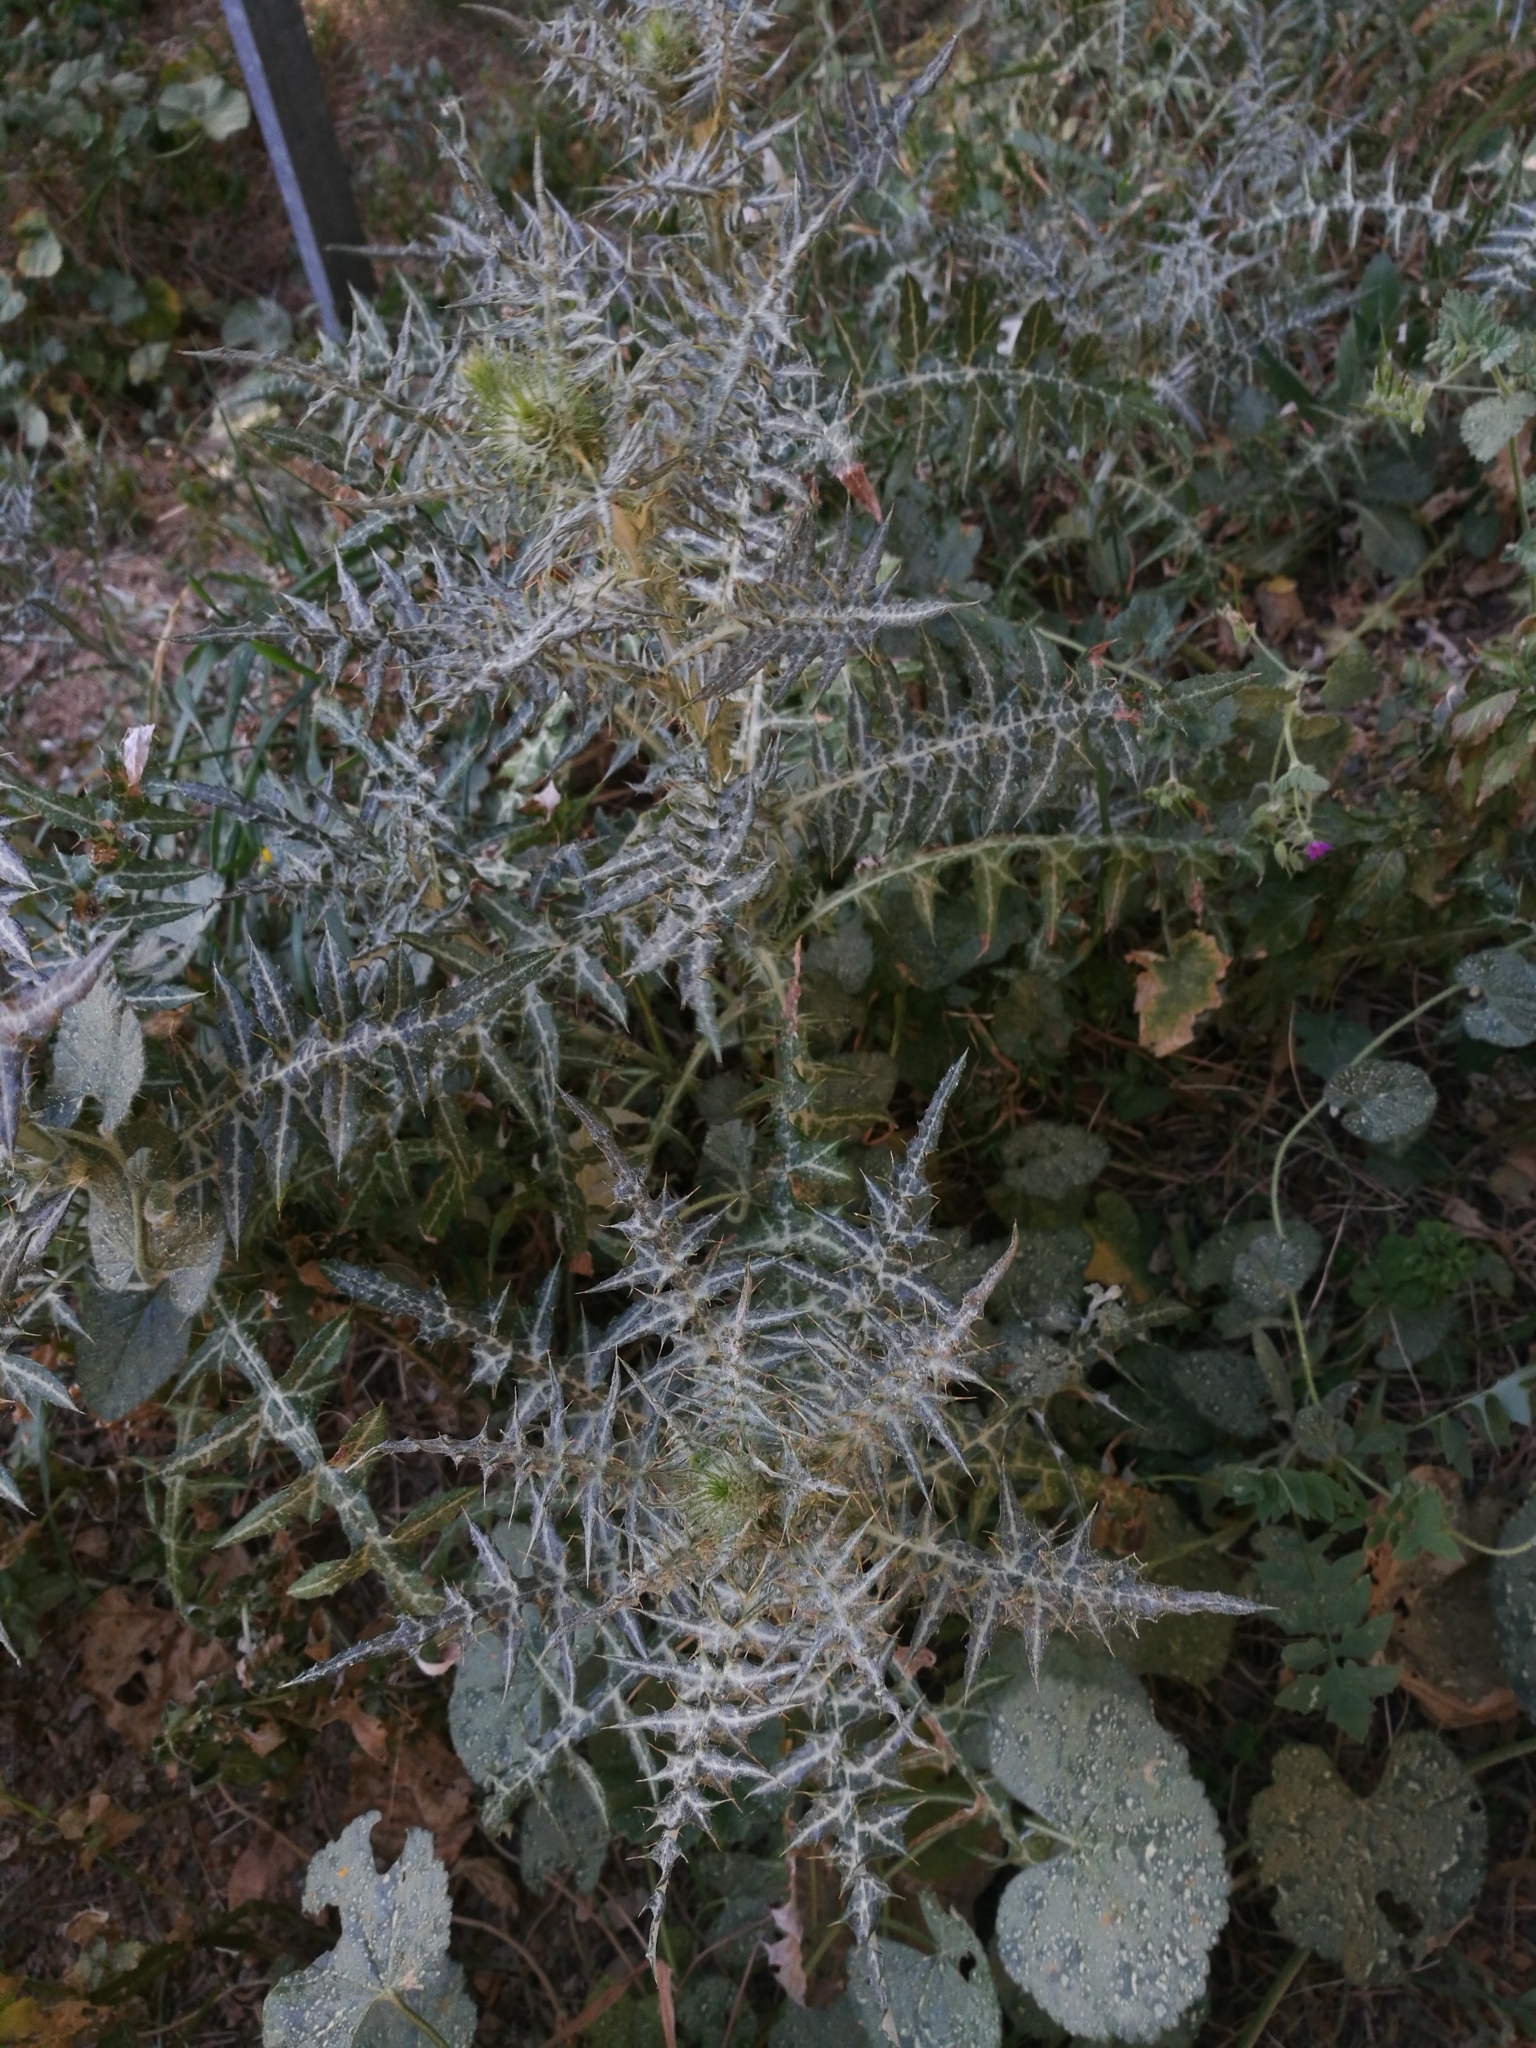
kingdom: Plantae
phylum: Tracheophyta
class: Magnoliopsida
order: Asterales
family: Asteraceae
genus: Galactites
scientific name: Galactites tomentosa
